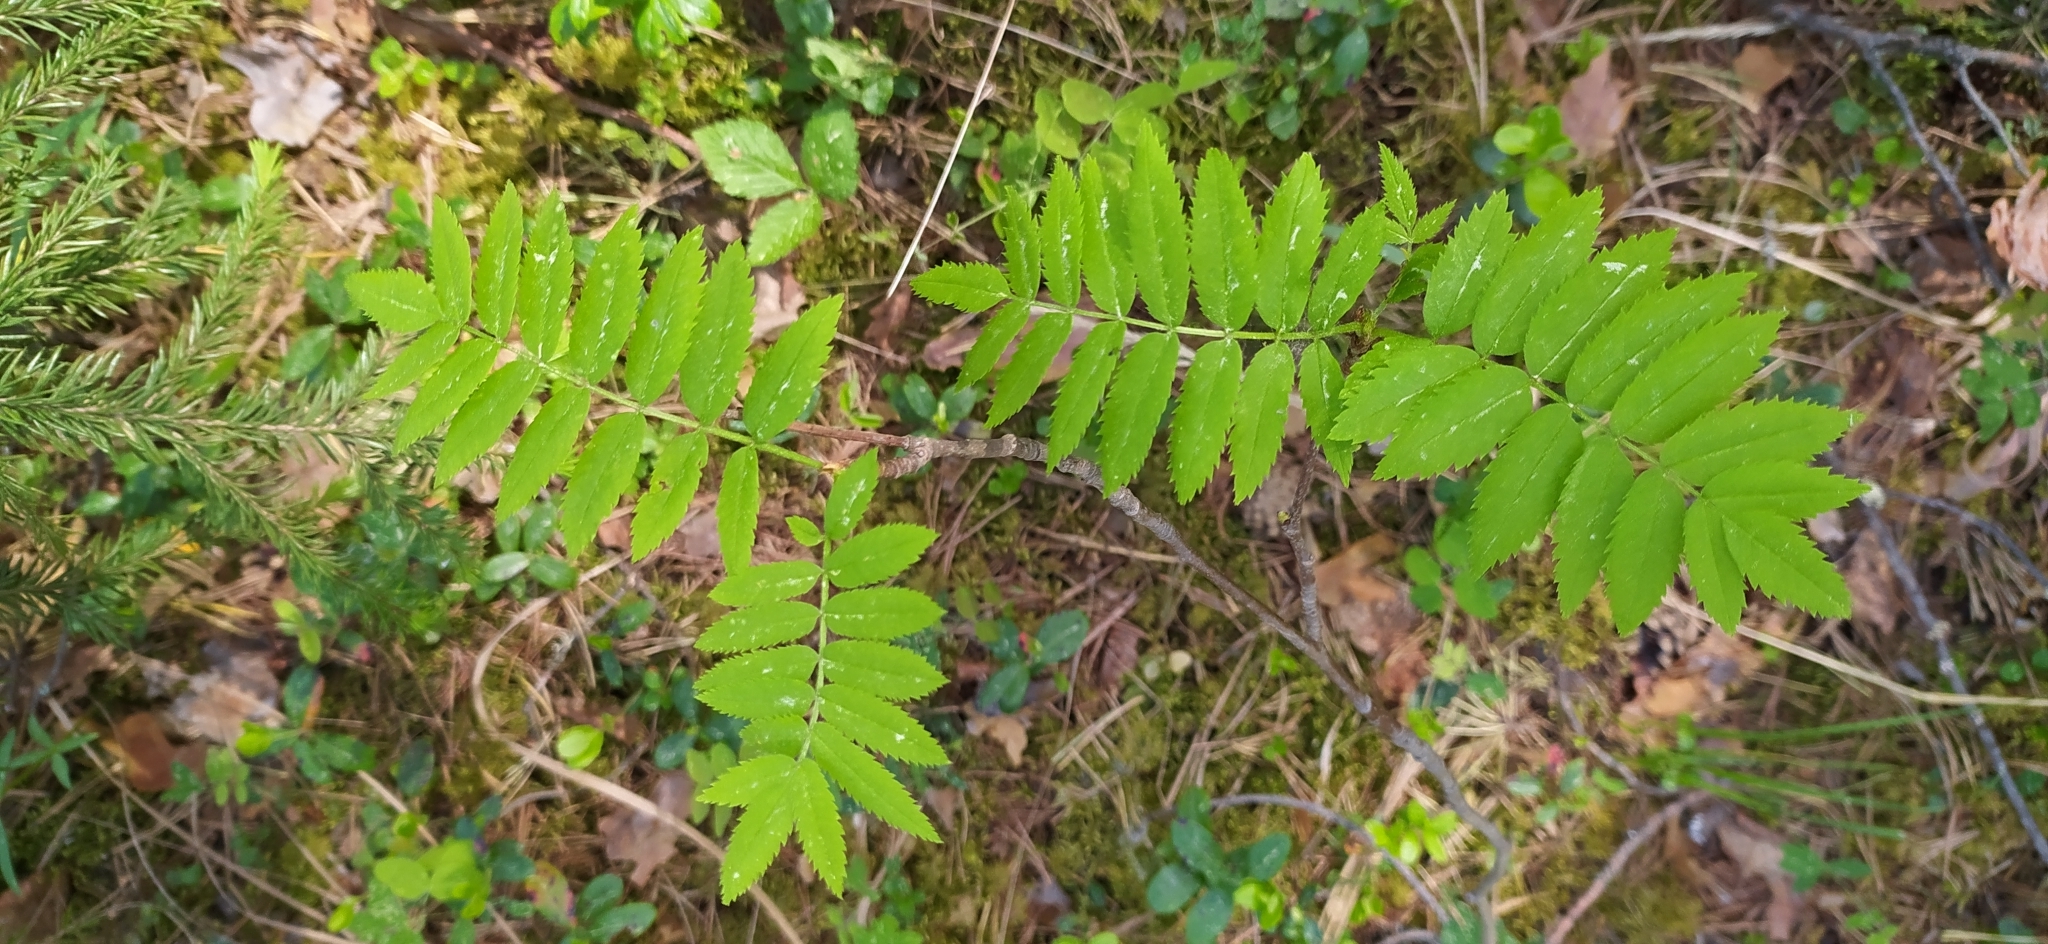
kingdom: Plantae
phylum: Tracheophyta
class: Magnoliopsida
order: Rosales
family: Rosaceae
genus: Sorbus
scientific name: Sorbus aucuparia
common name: Rowan
